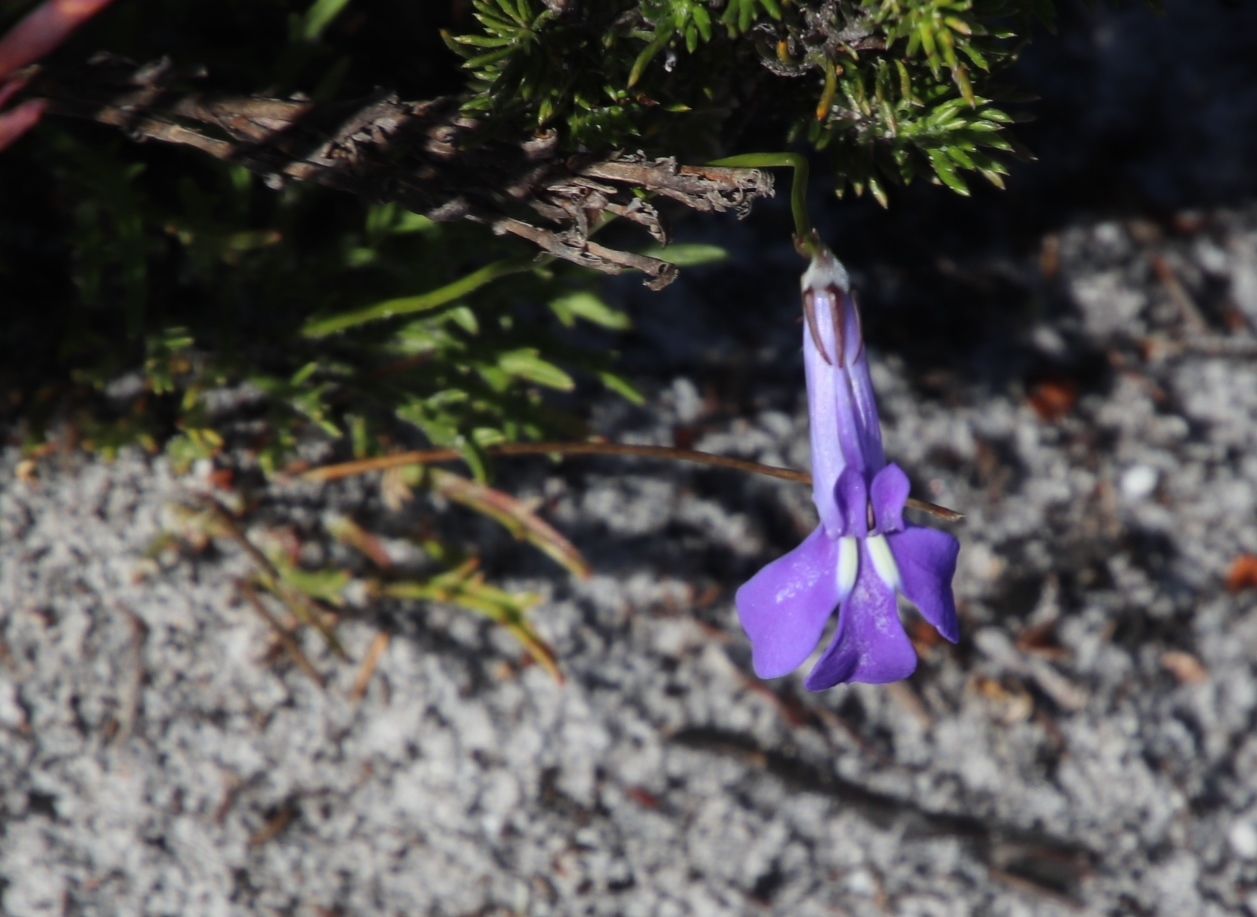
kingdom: Plantae
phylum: Tracheophyta
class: Magnoliopsida
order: Asterales
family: Campanulaceae
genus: Lobelia
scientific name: Lobelia coronopifolia
